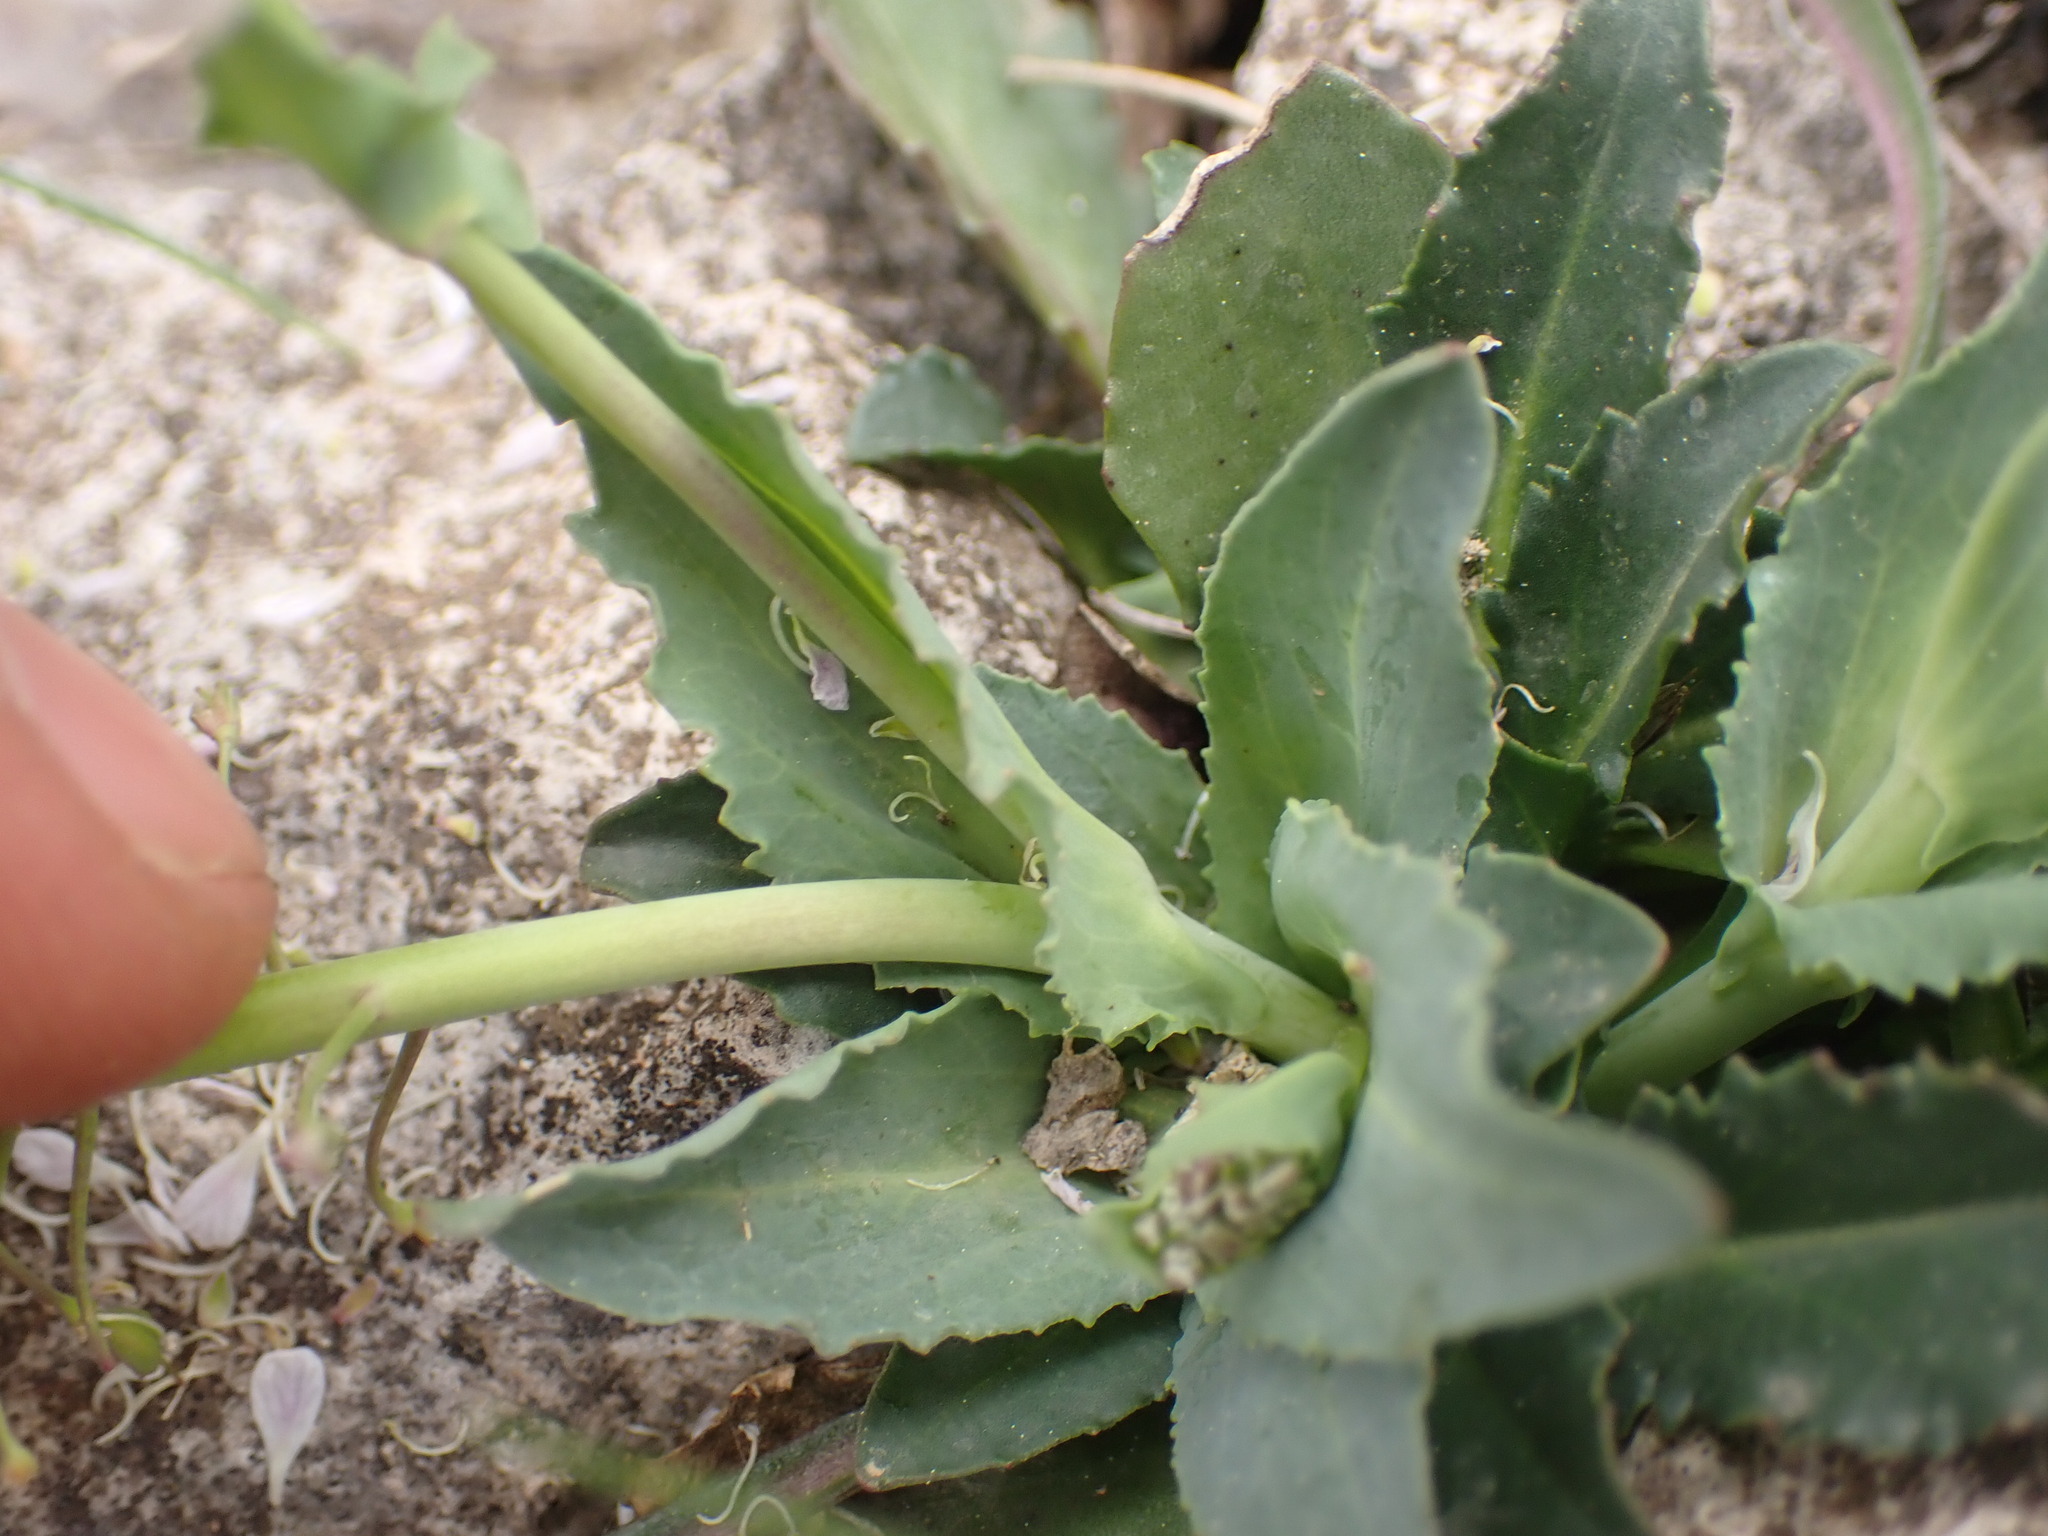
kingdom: Plantae
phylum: Tracheophyta
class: Magnoliopsida
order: Brassicales
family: Brassicaceae
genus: Noccaea
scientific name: Noccaea caerulescens
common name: Alpine pennycress
